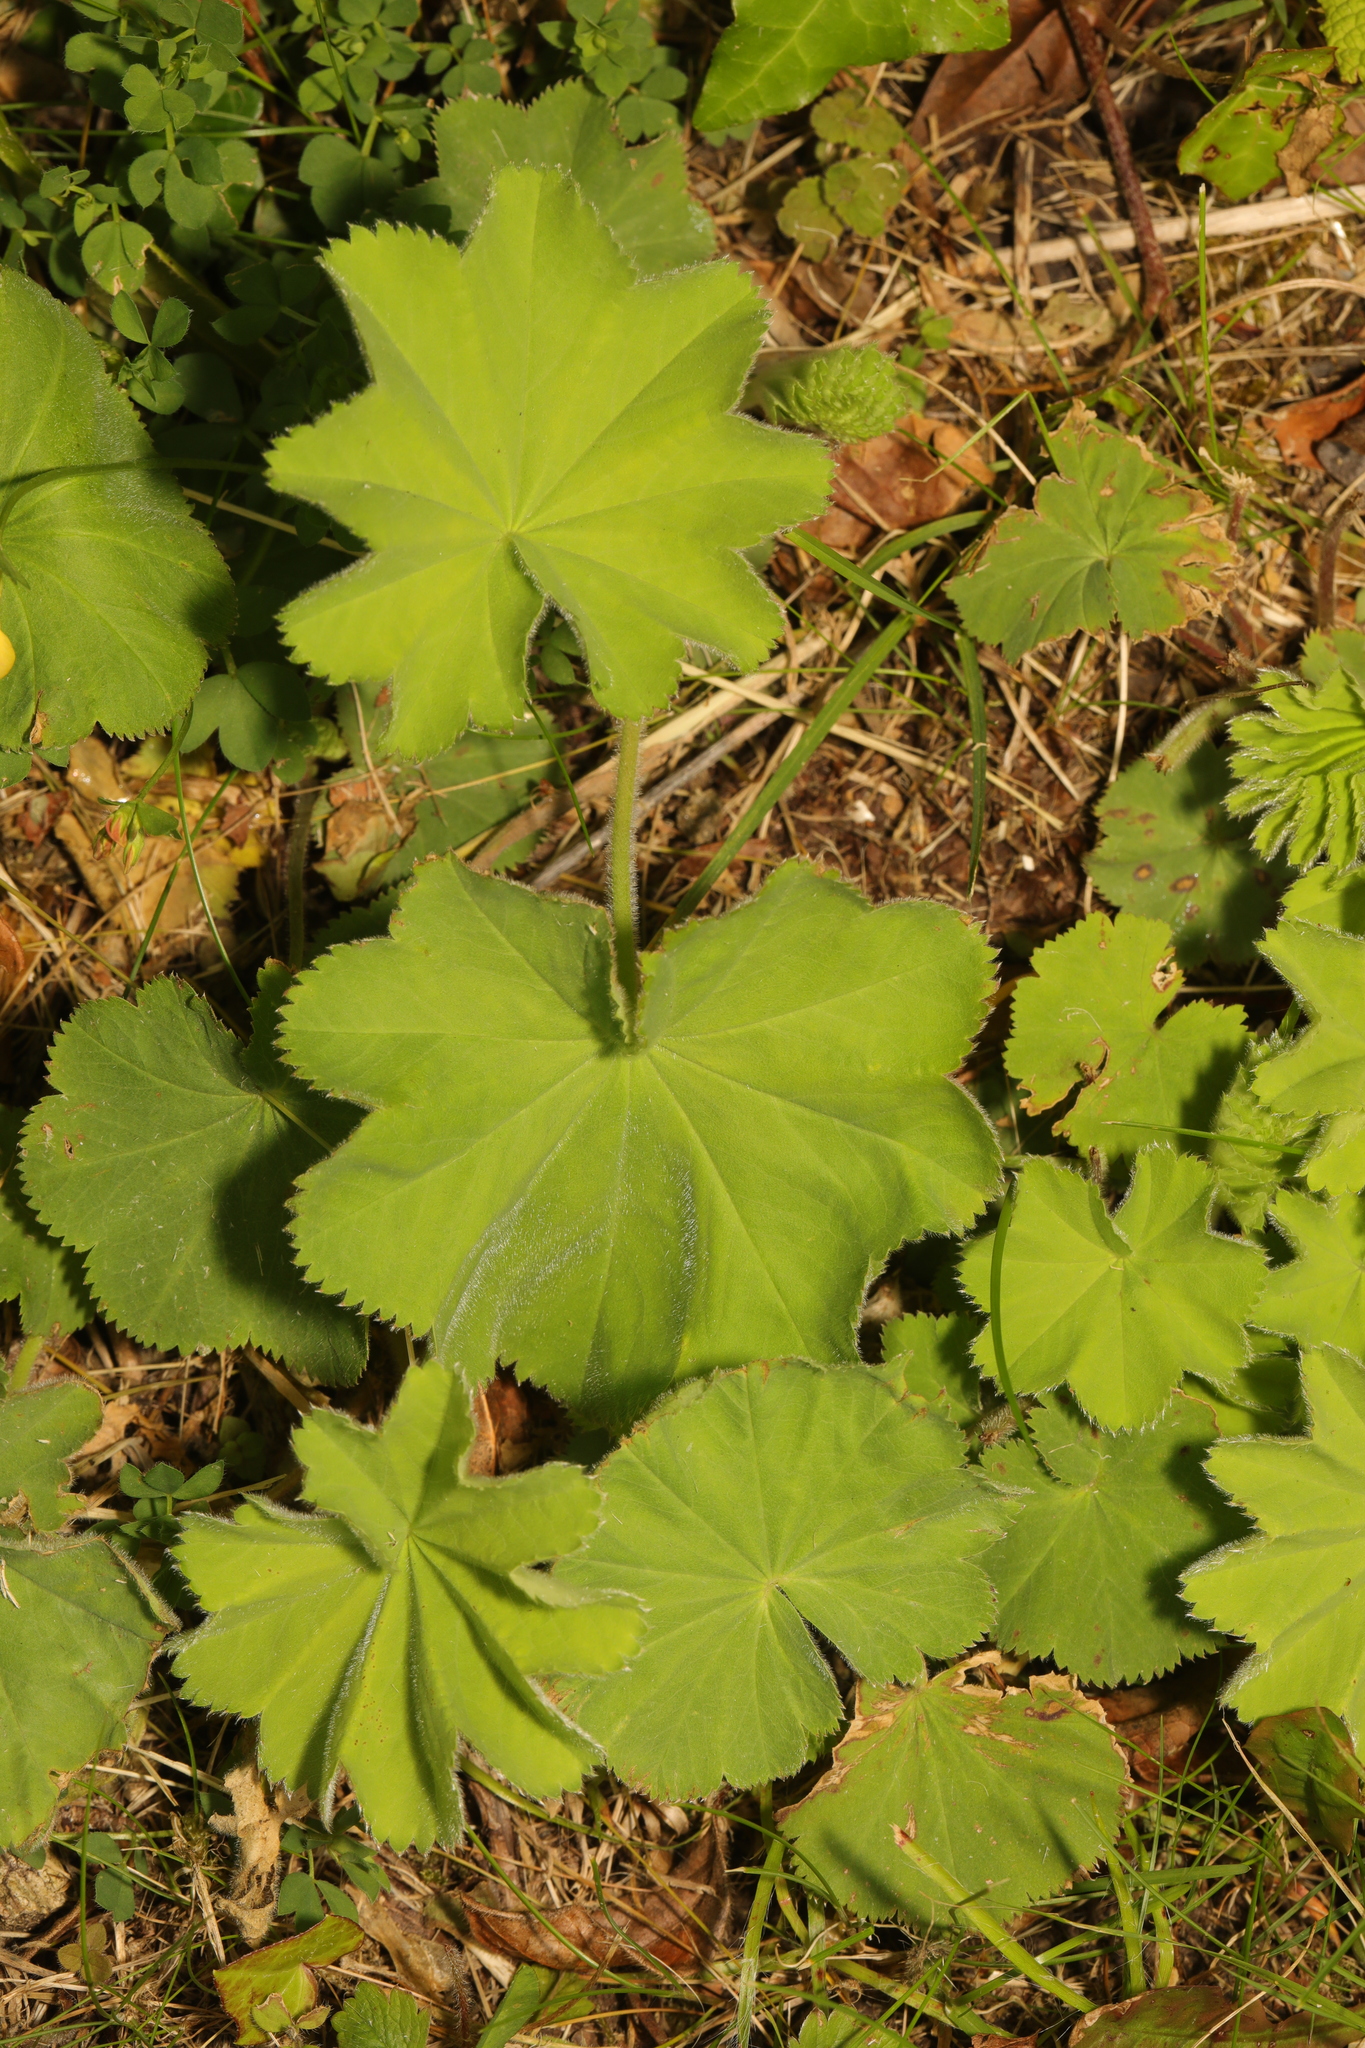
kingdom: Plantae
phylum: Tracheophyta
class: Magnoliopsida
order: Rosales
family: Rosaceae
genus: Alchemilla
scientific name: Alchemilla mollis
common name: Lady's-mantle
